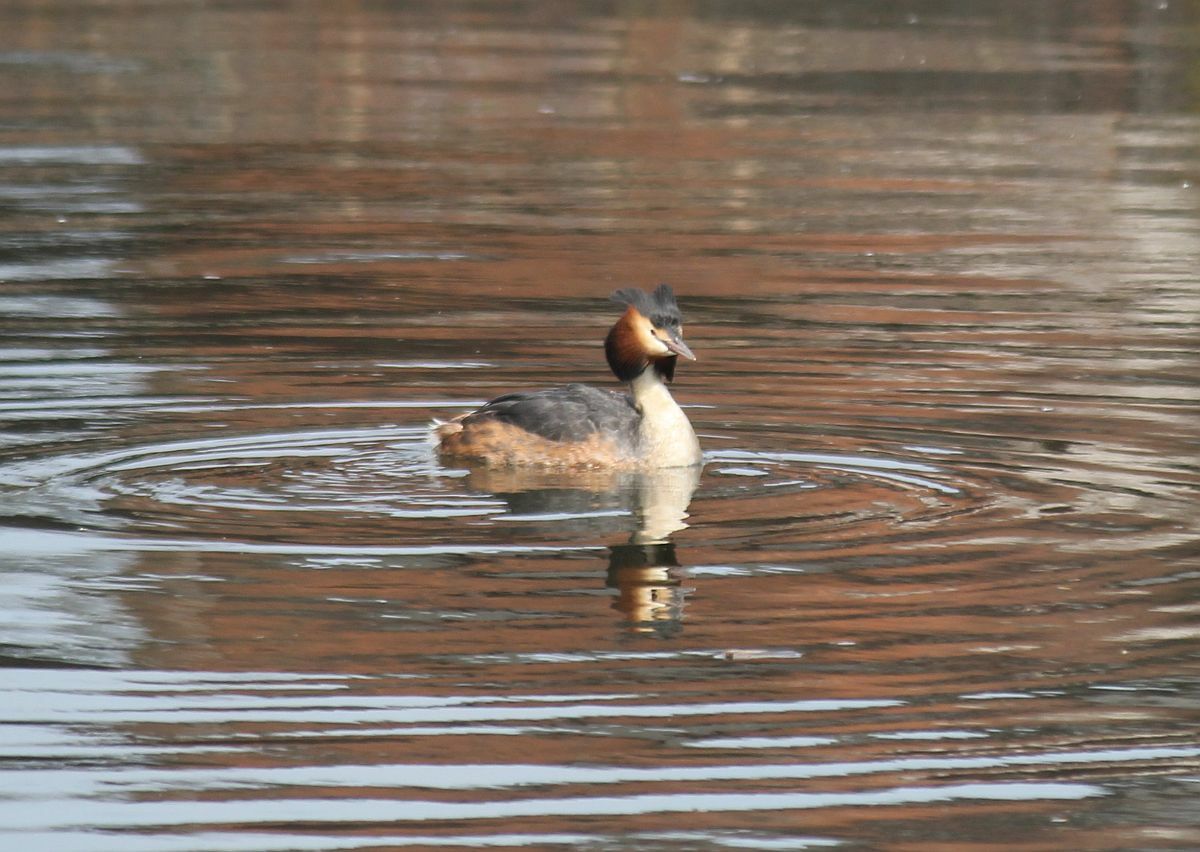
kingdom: Animalia
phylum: Chordata
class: Aves
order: Podicipediformes
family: Podicipedidae
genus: Podiceps
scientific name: Podiceps cristatus
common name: Great crested grebe
